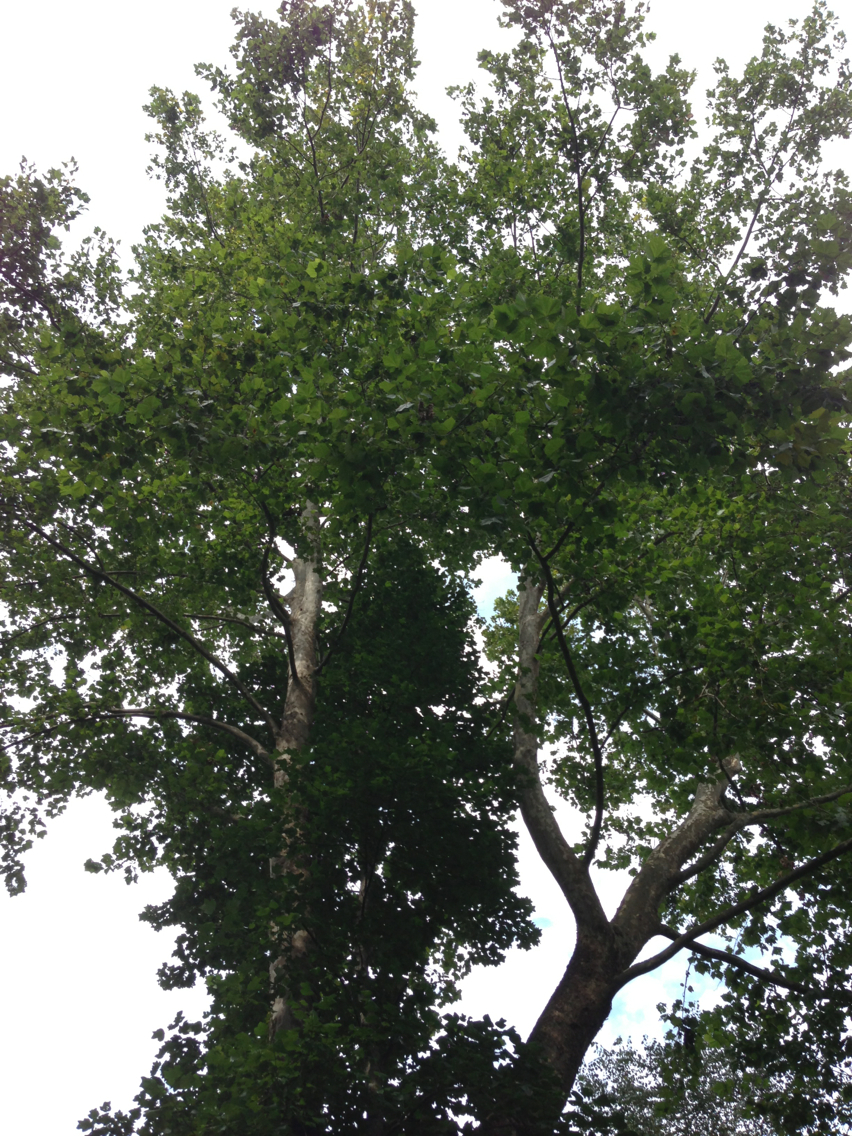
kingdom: Plantae
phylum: Tracheophyta
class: Magnoliopsida
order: Proteales
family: Platanaceae
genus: Platanus
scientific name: Platanus occidentalis
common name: American sycamore
